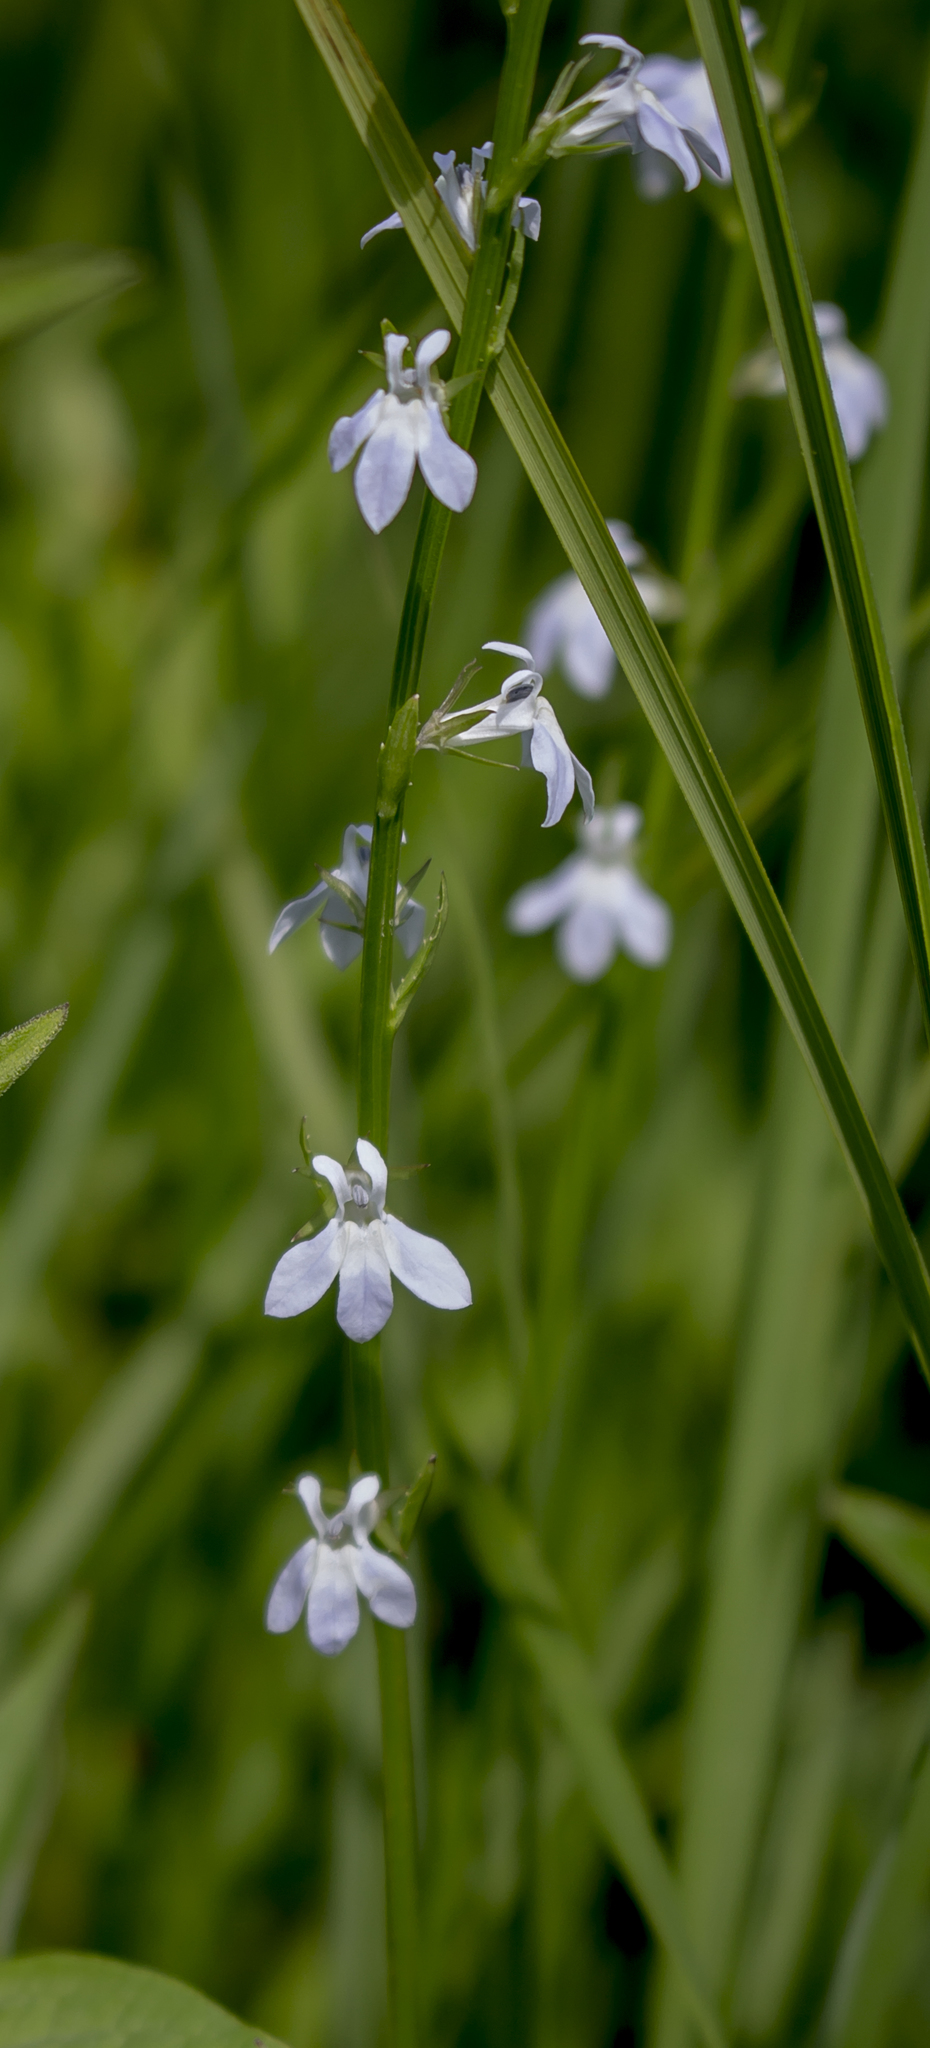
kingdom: Plantae
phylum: Tracheophyta
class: Magnoliopsida
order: Asterales
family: Campanulaceae
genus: Lobelia
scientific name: Lobelia spicata
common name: Pale-spike lobelia
